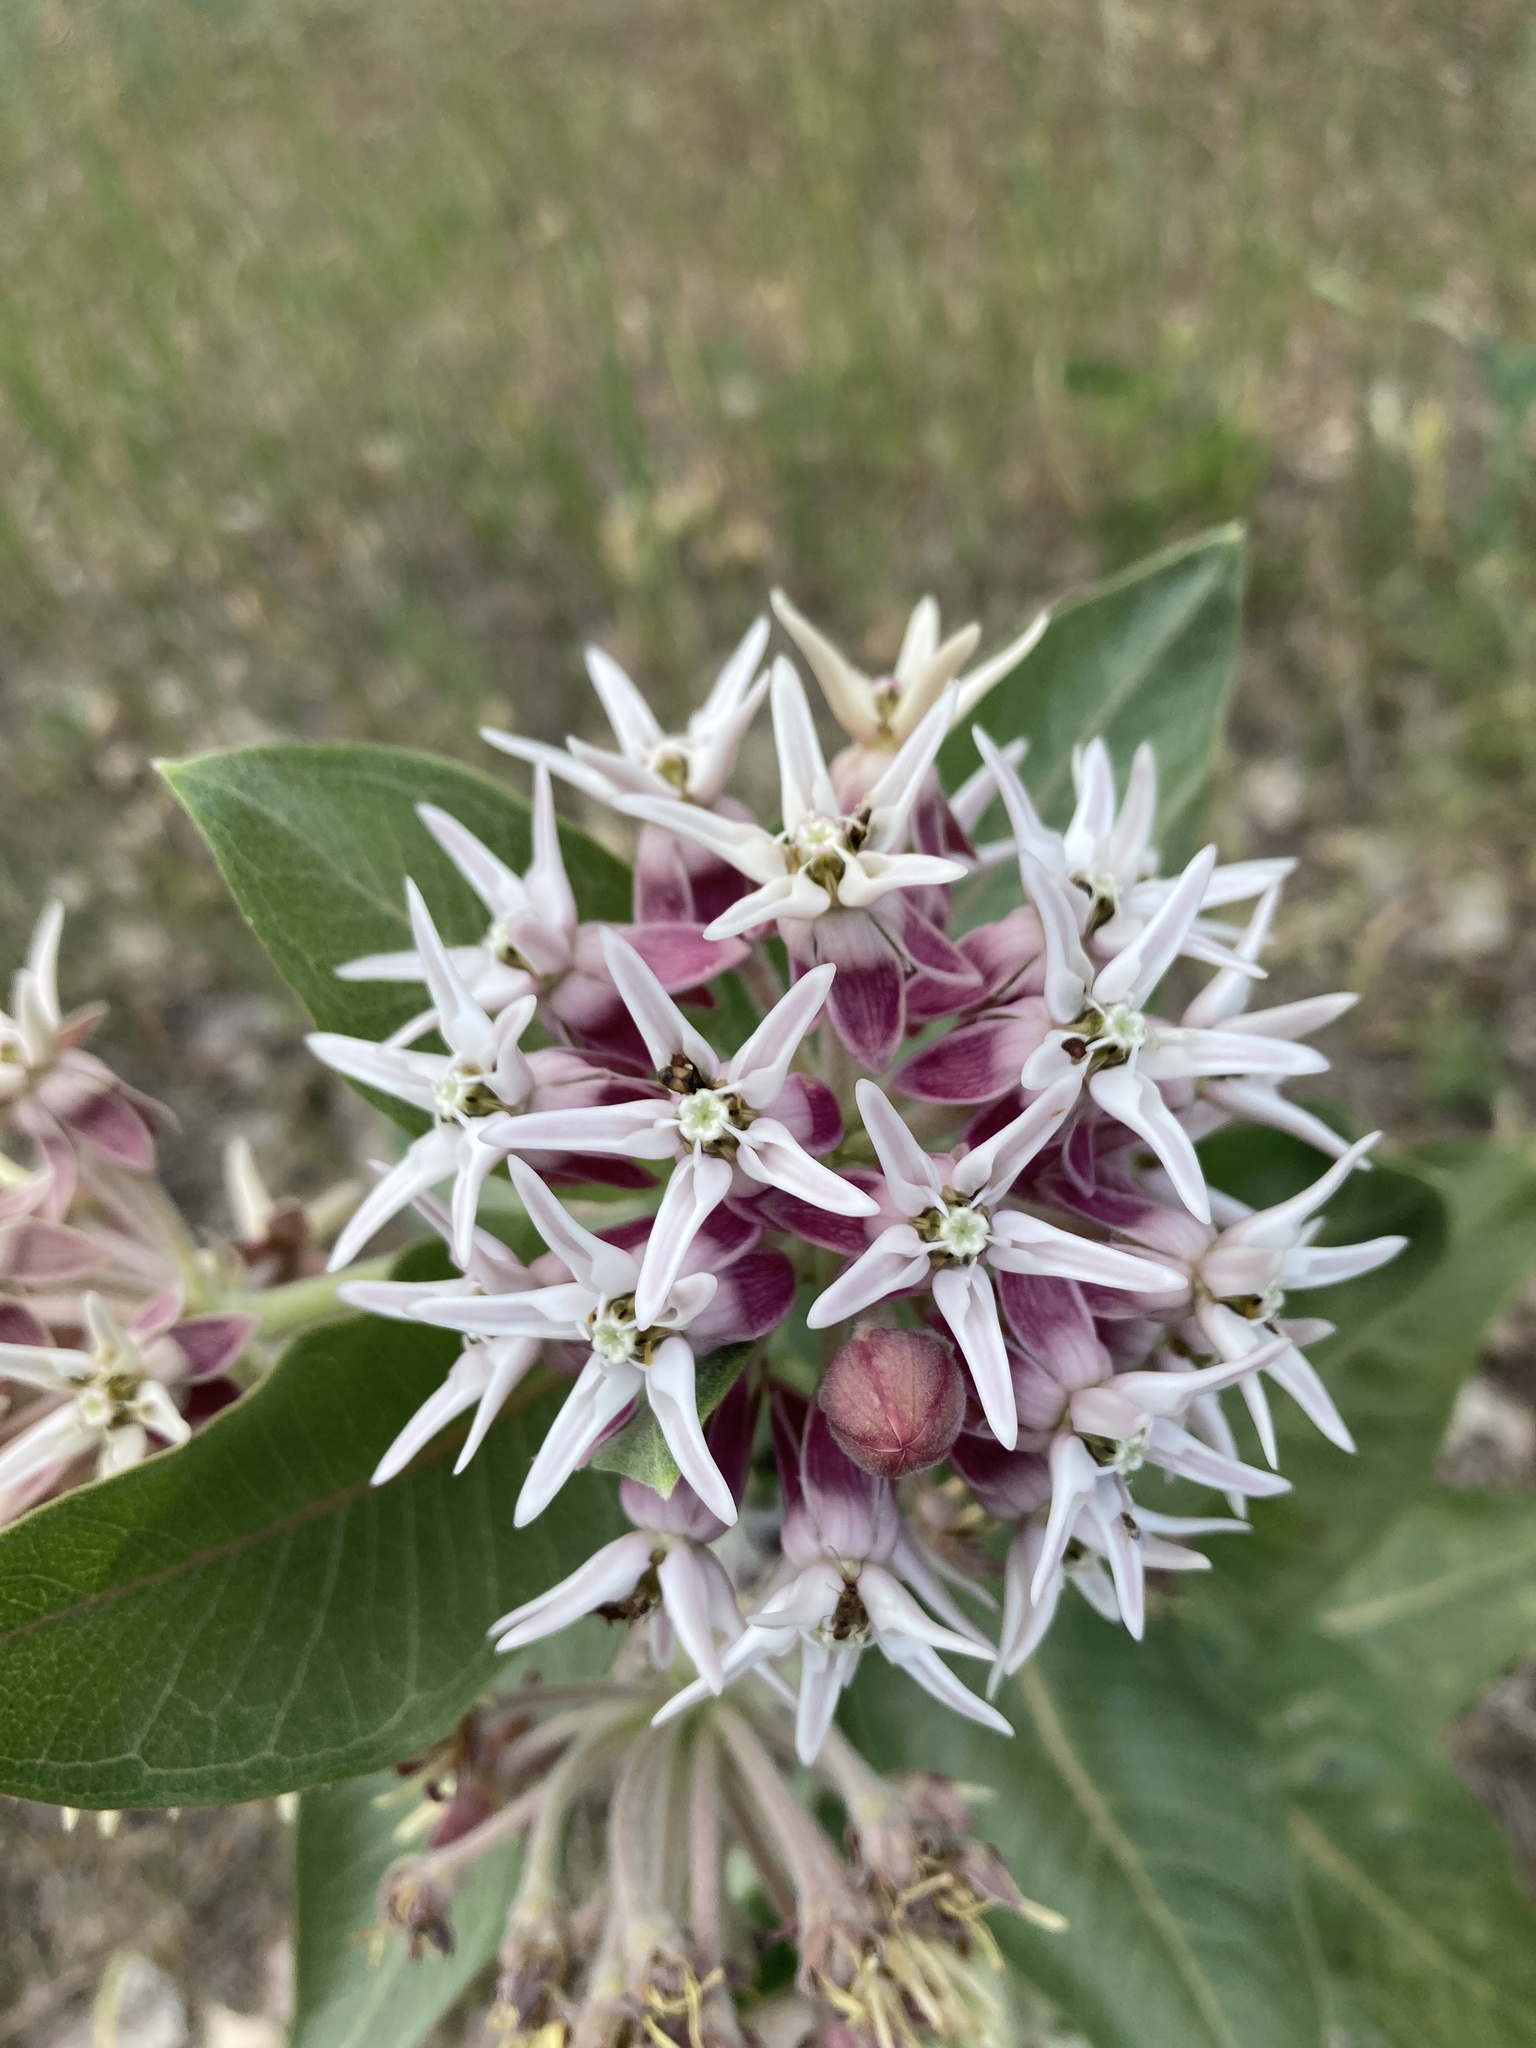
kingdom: Plantae
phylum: Tracheophyta
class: Magnoliopsida
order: Gentianales
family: Apocynaceae
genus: Asclepias
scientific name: Asclepias speciosa
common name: Showy milkweed
